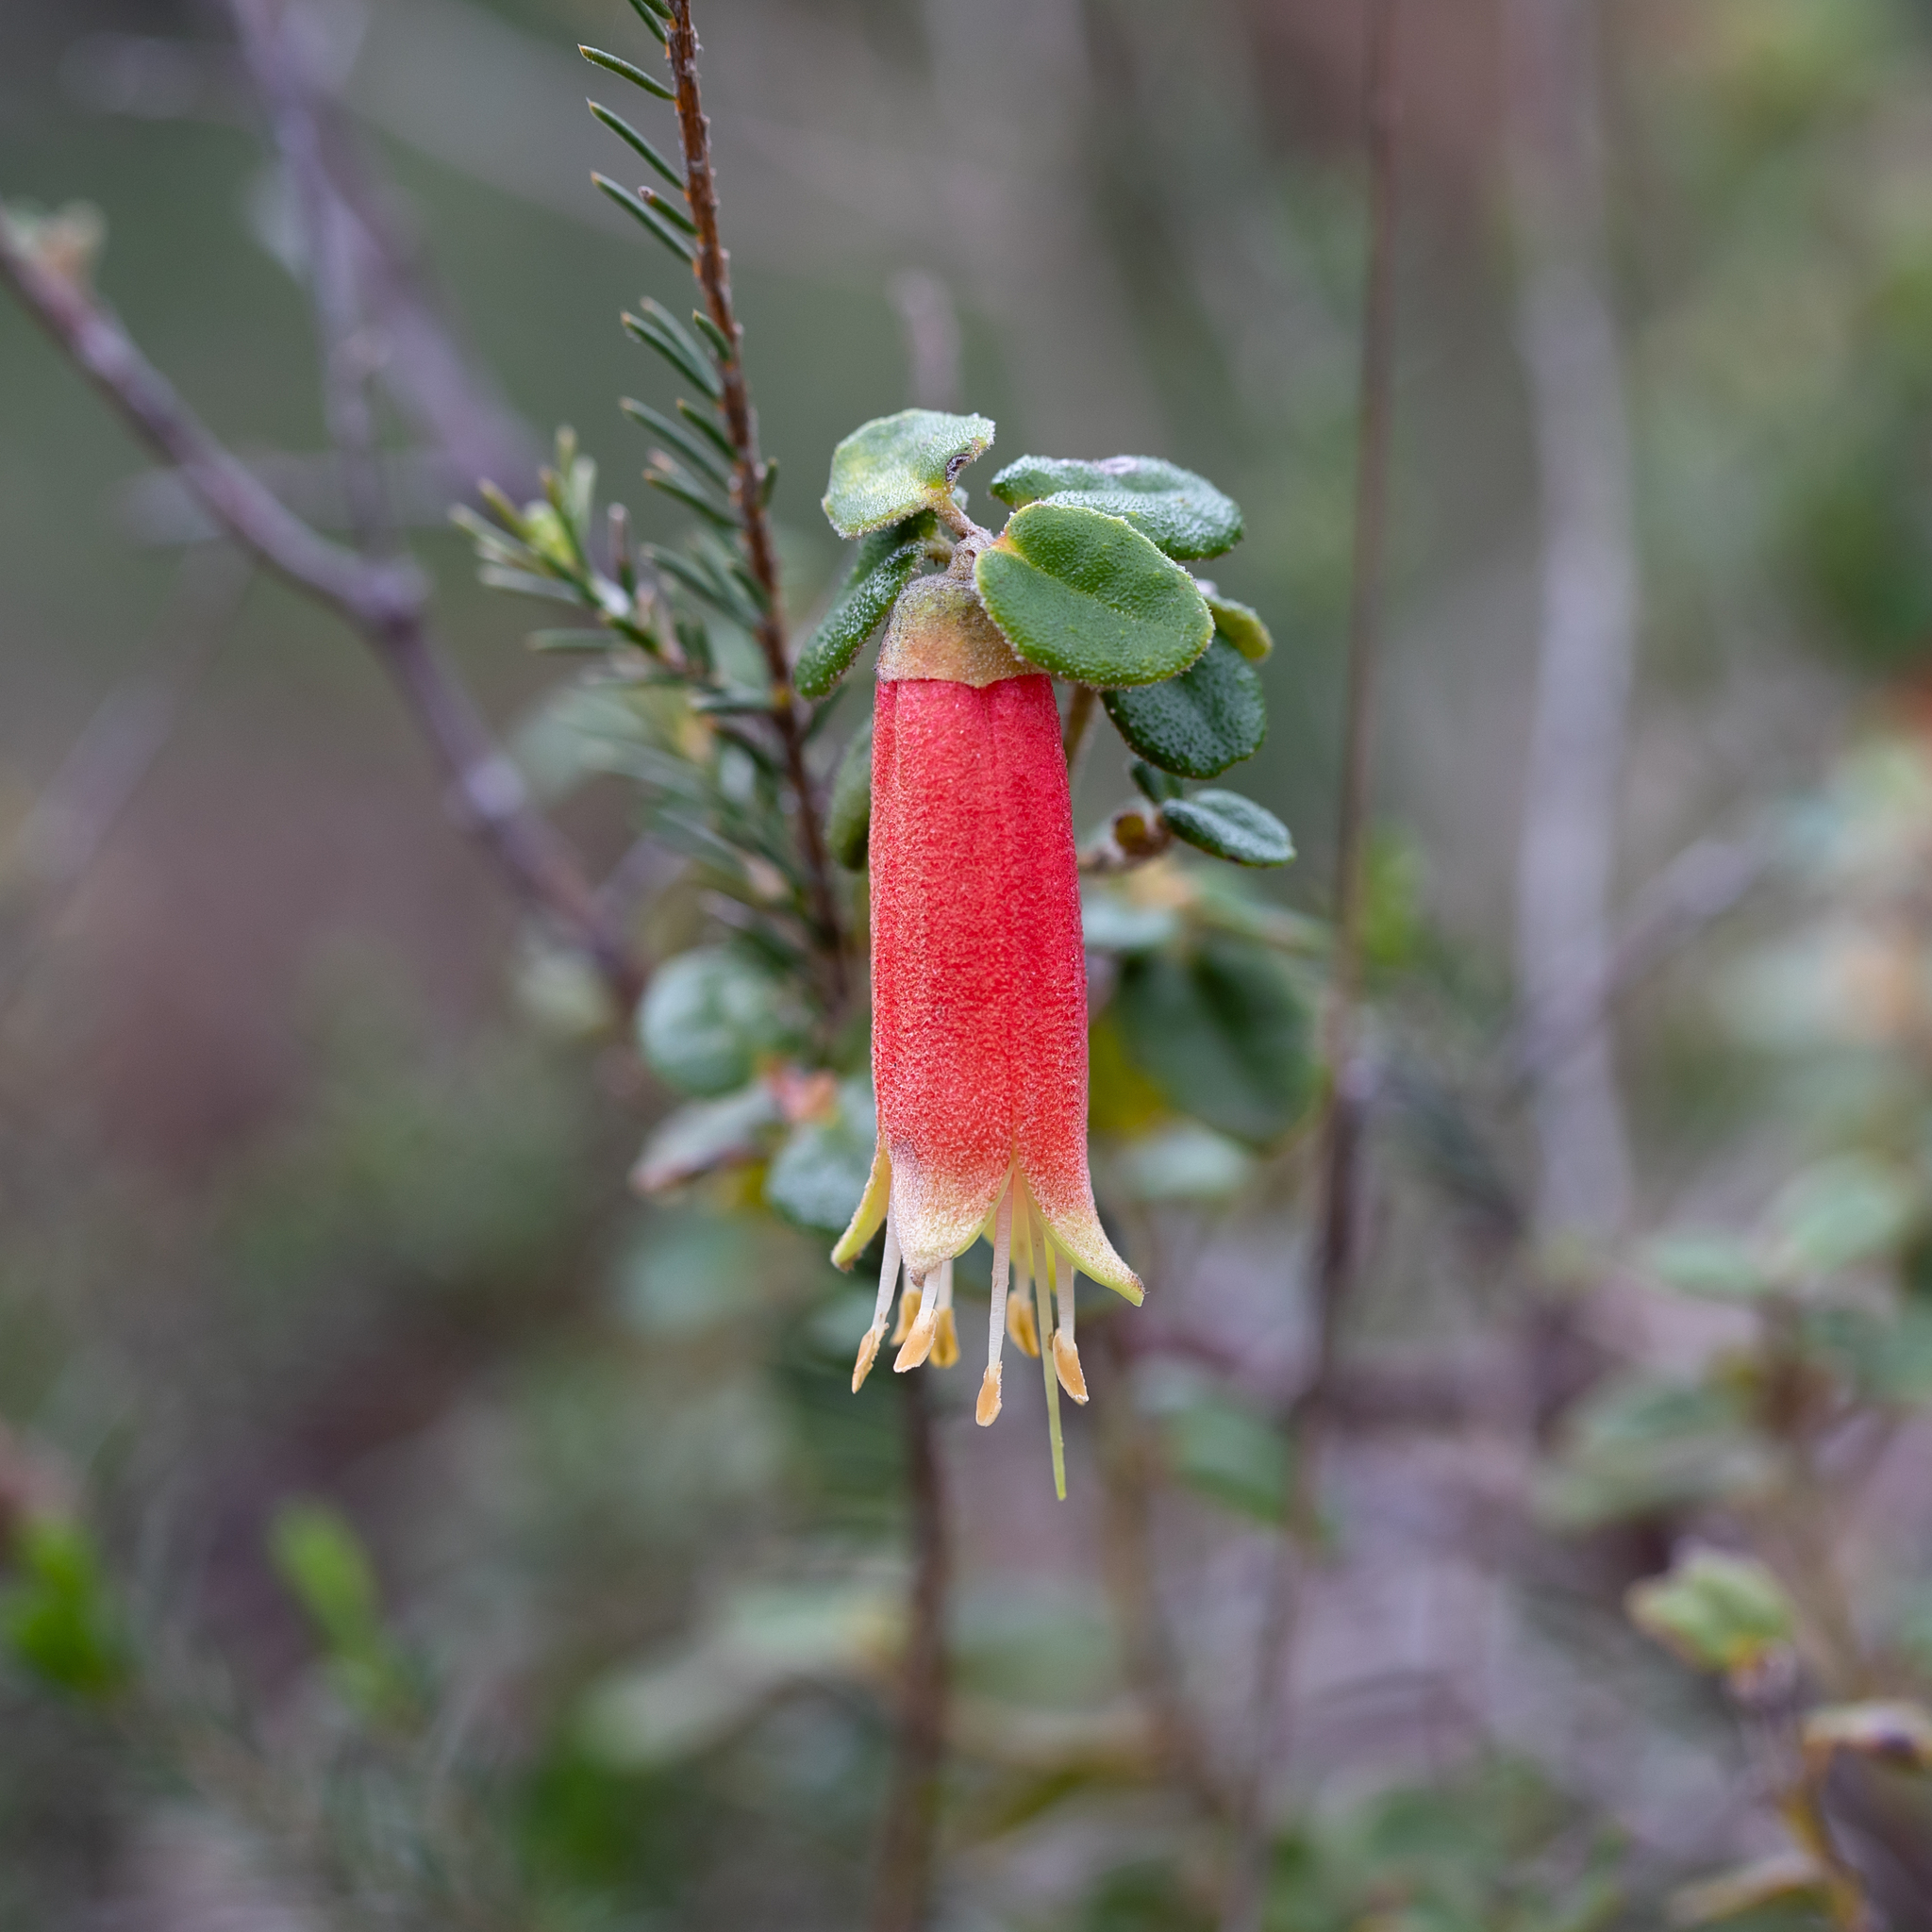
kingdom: Plantae
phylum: Tracheophyta
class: Magnoliopsida
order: Sapindales
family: Rutaceae
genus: Correa
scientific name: Correa reflexa
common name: Common correa
